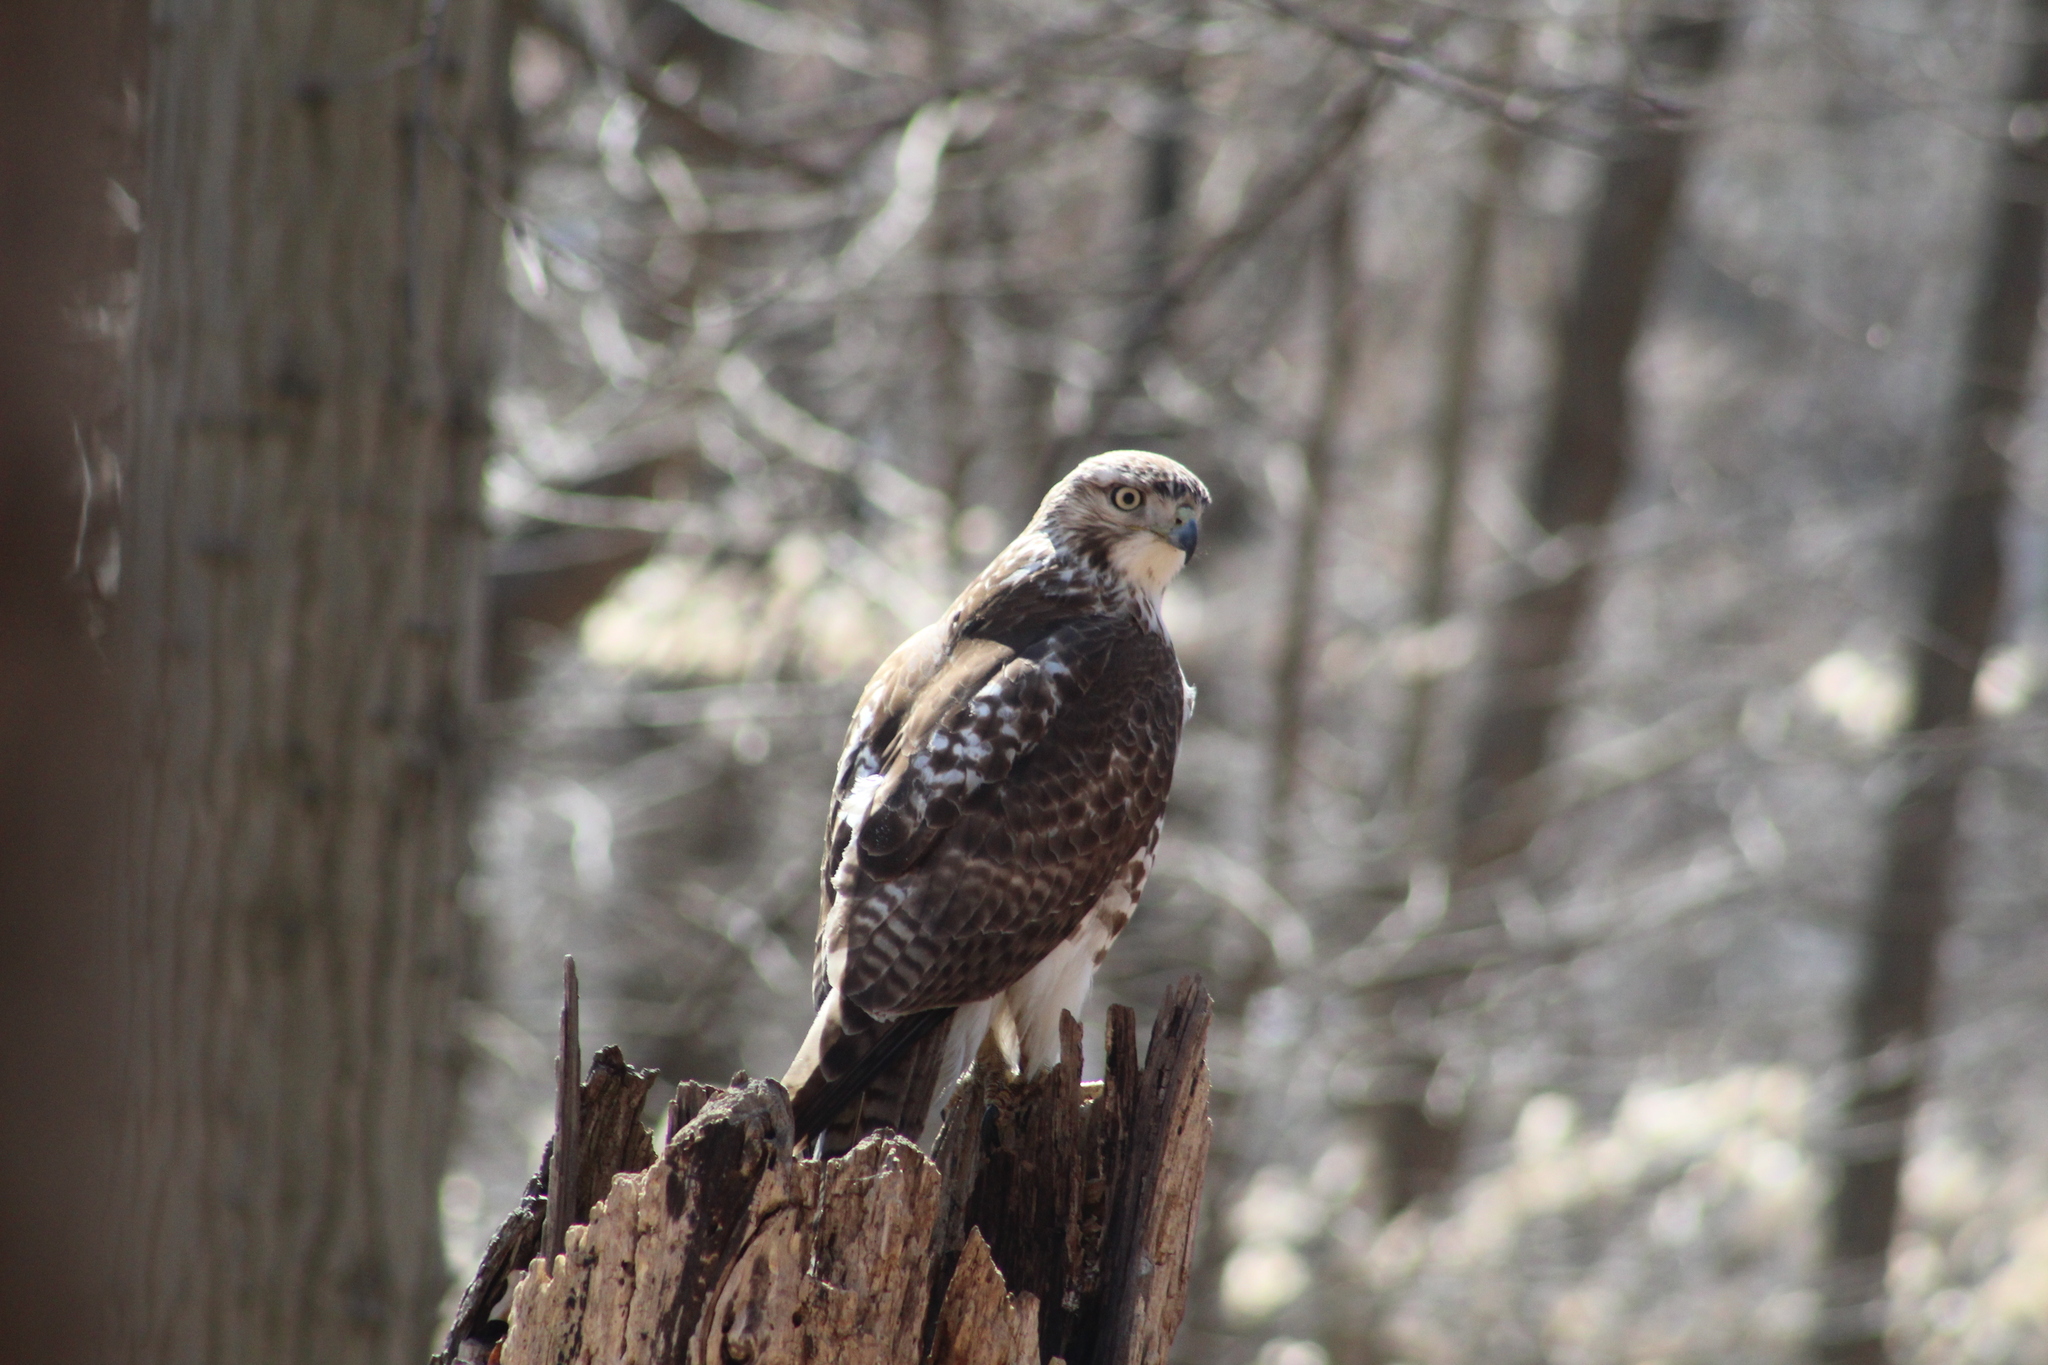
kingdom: Animalia
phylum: Chordata
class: Aves
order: Accipitriformes
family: Accipitridae
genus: Buteo
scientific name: Buteo jamaicensis
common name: Red-tailed hawk
